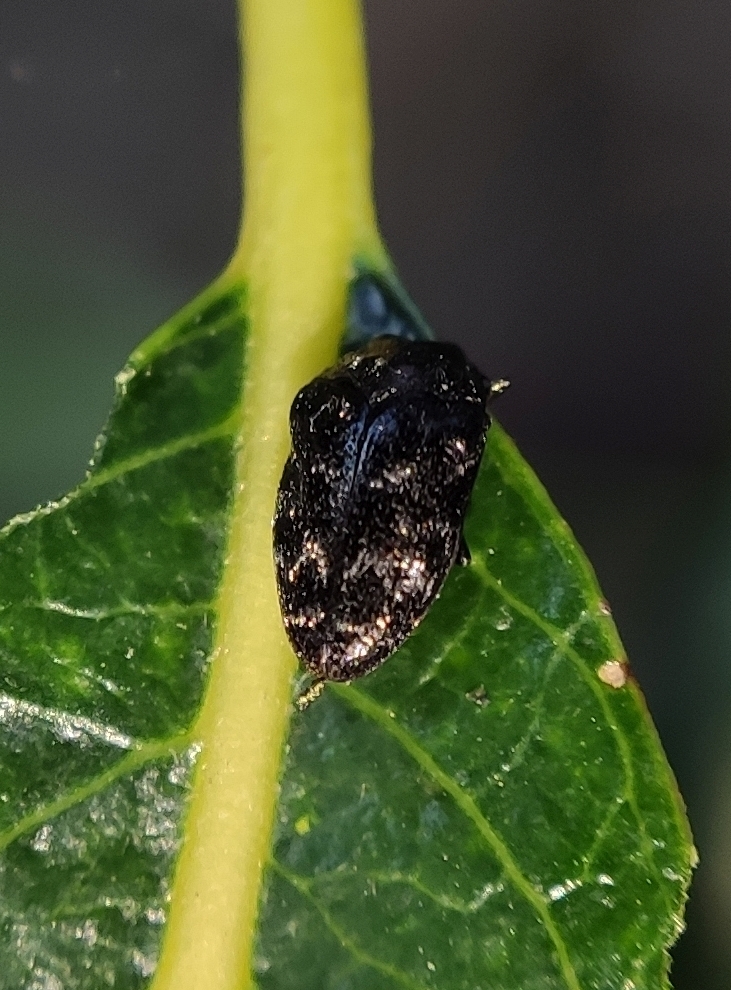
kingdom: Animalia
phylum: Arthropoda
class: Insecta
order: Coleoptera
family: Buprestidae
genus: Trachys
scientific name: Trachys minutus
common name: Metallic wood-boring beetle
